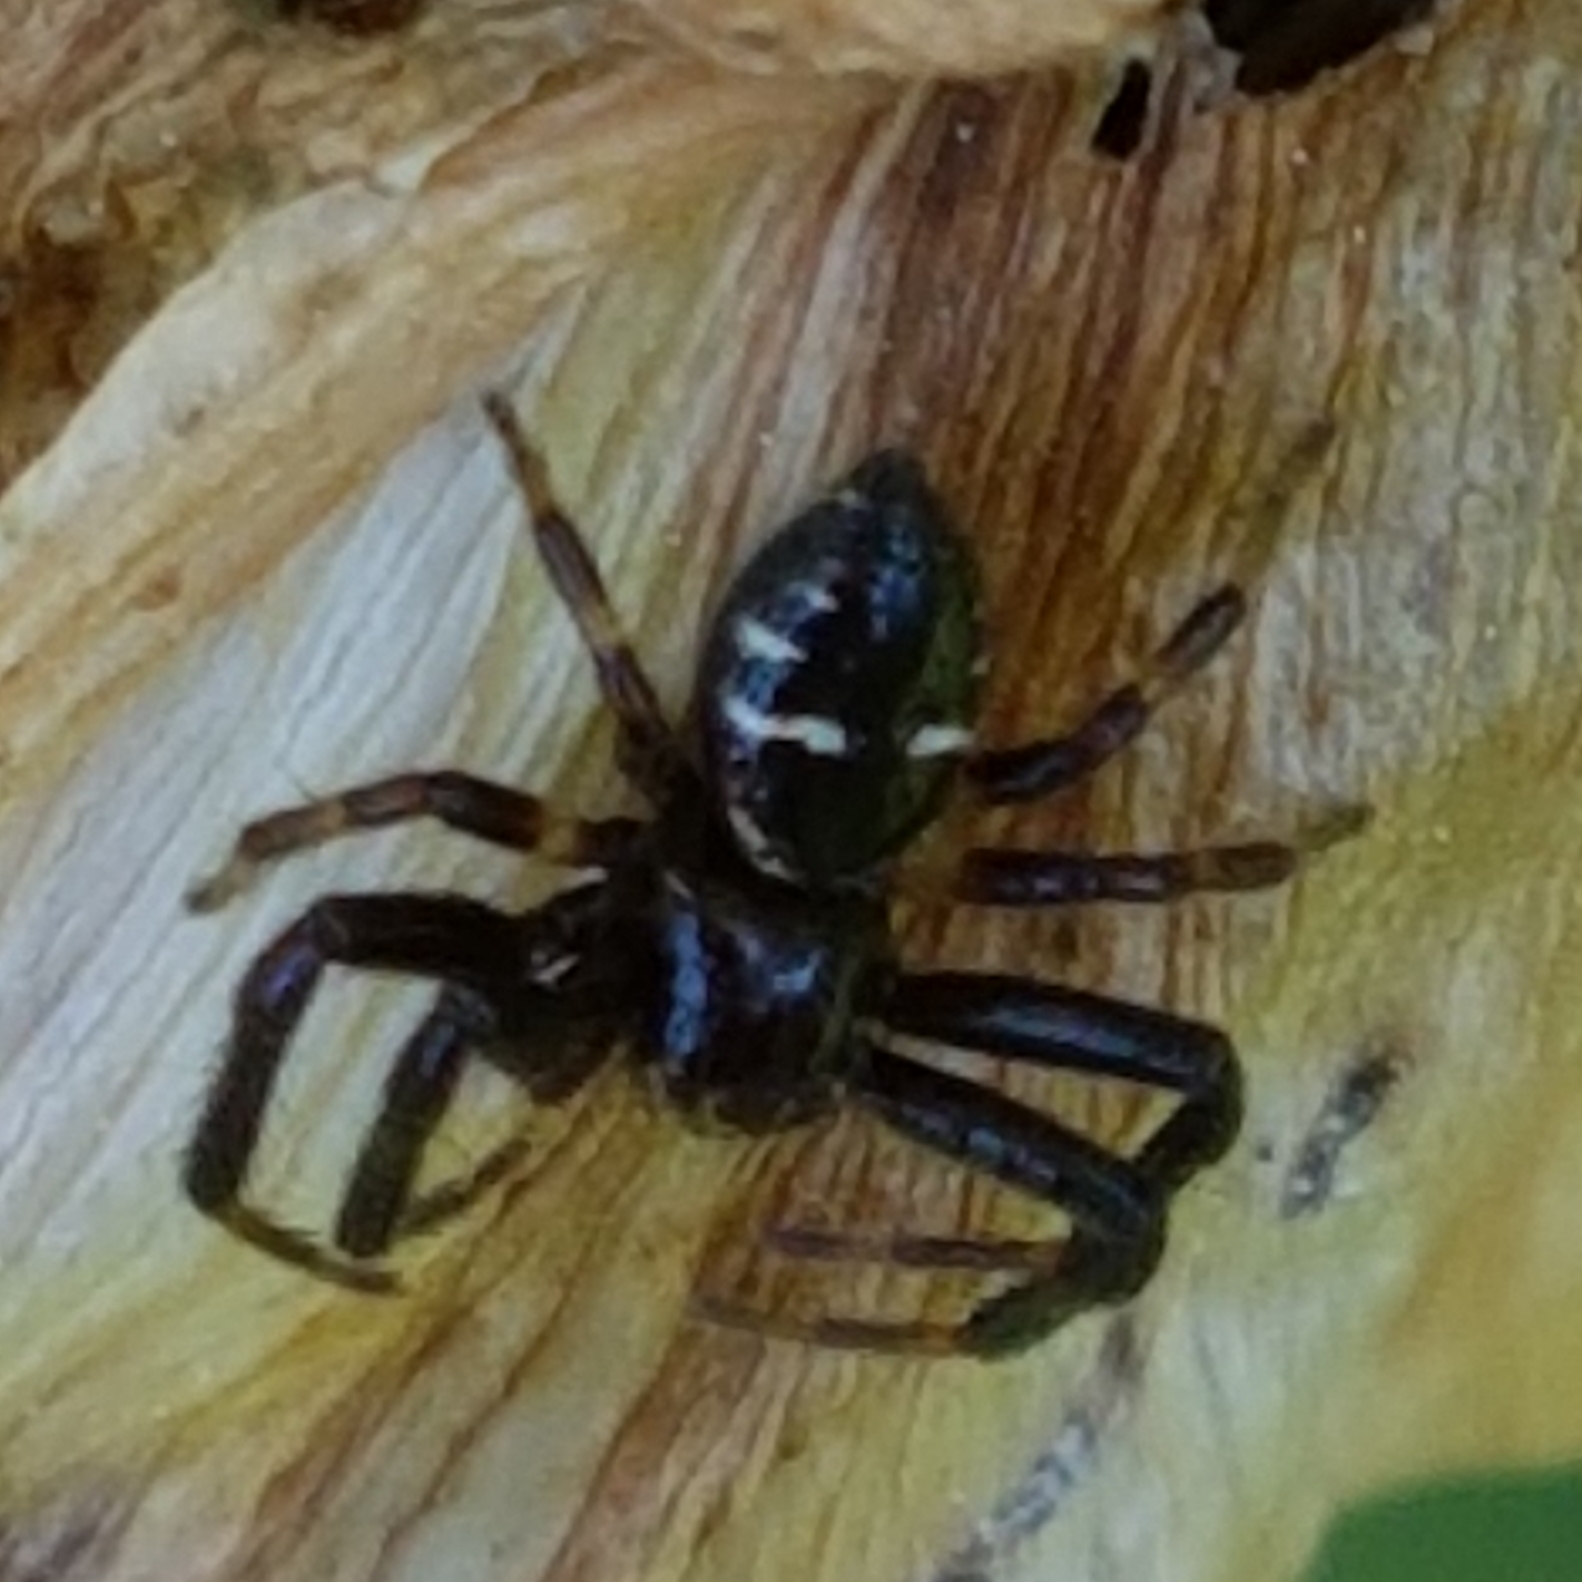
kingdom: Animalia
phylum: Arthropoda
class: Arachnida
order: Araneae
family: Thomisidae
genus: Synema
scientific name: Synema globosum
